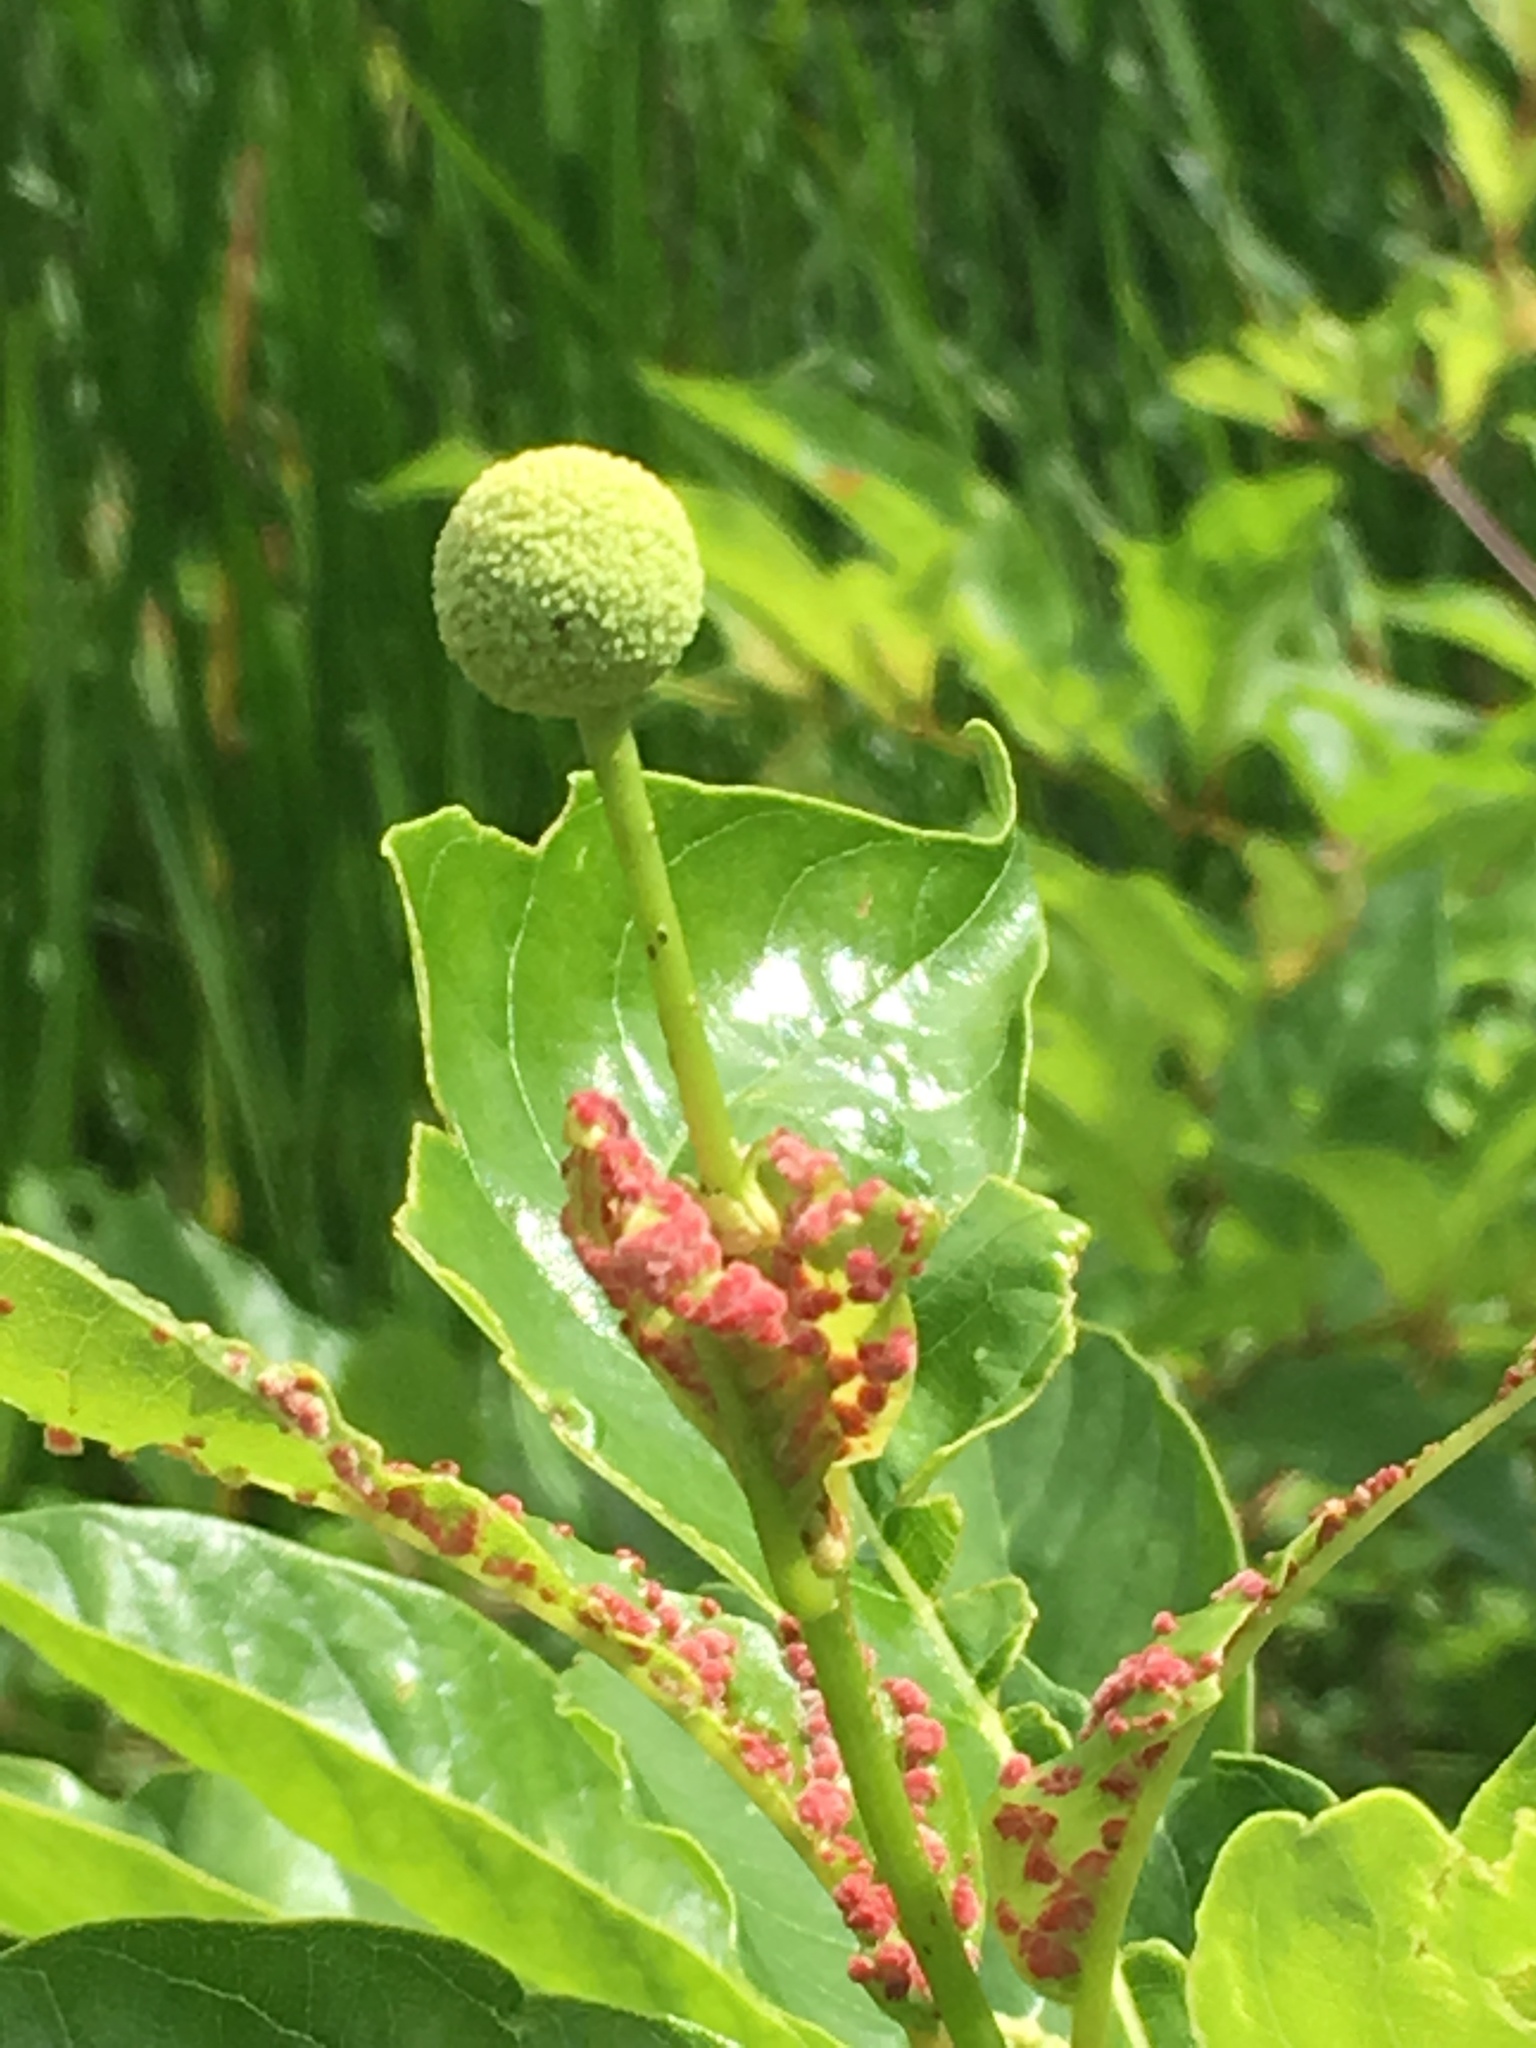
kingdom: Animalia
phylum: Arthropoda
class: Arachnida
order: Trombidiformes
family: Eriophyidae
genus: Aceria
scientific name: Aceria
